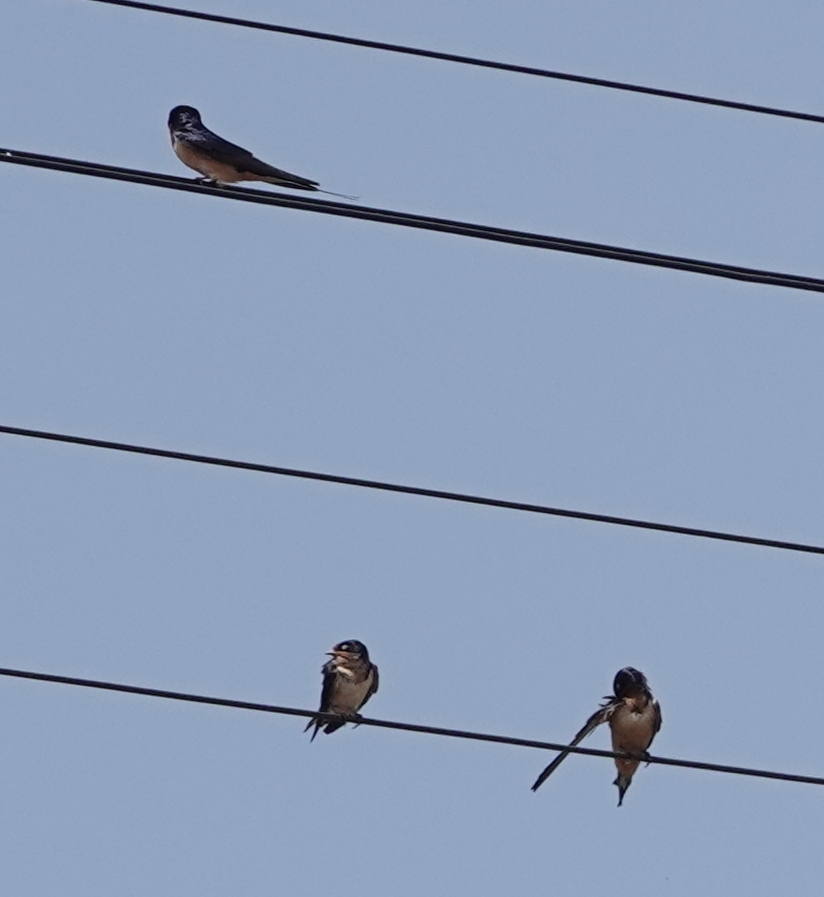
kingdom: Animalia
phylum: Chordata
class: Aves
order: Passeriformes
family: Hirundinidae
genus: Hirundo
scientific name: Hirundo rustica
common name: Barn swallow
